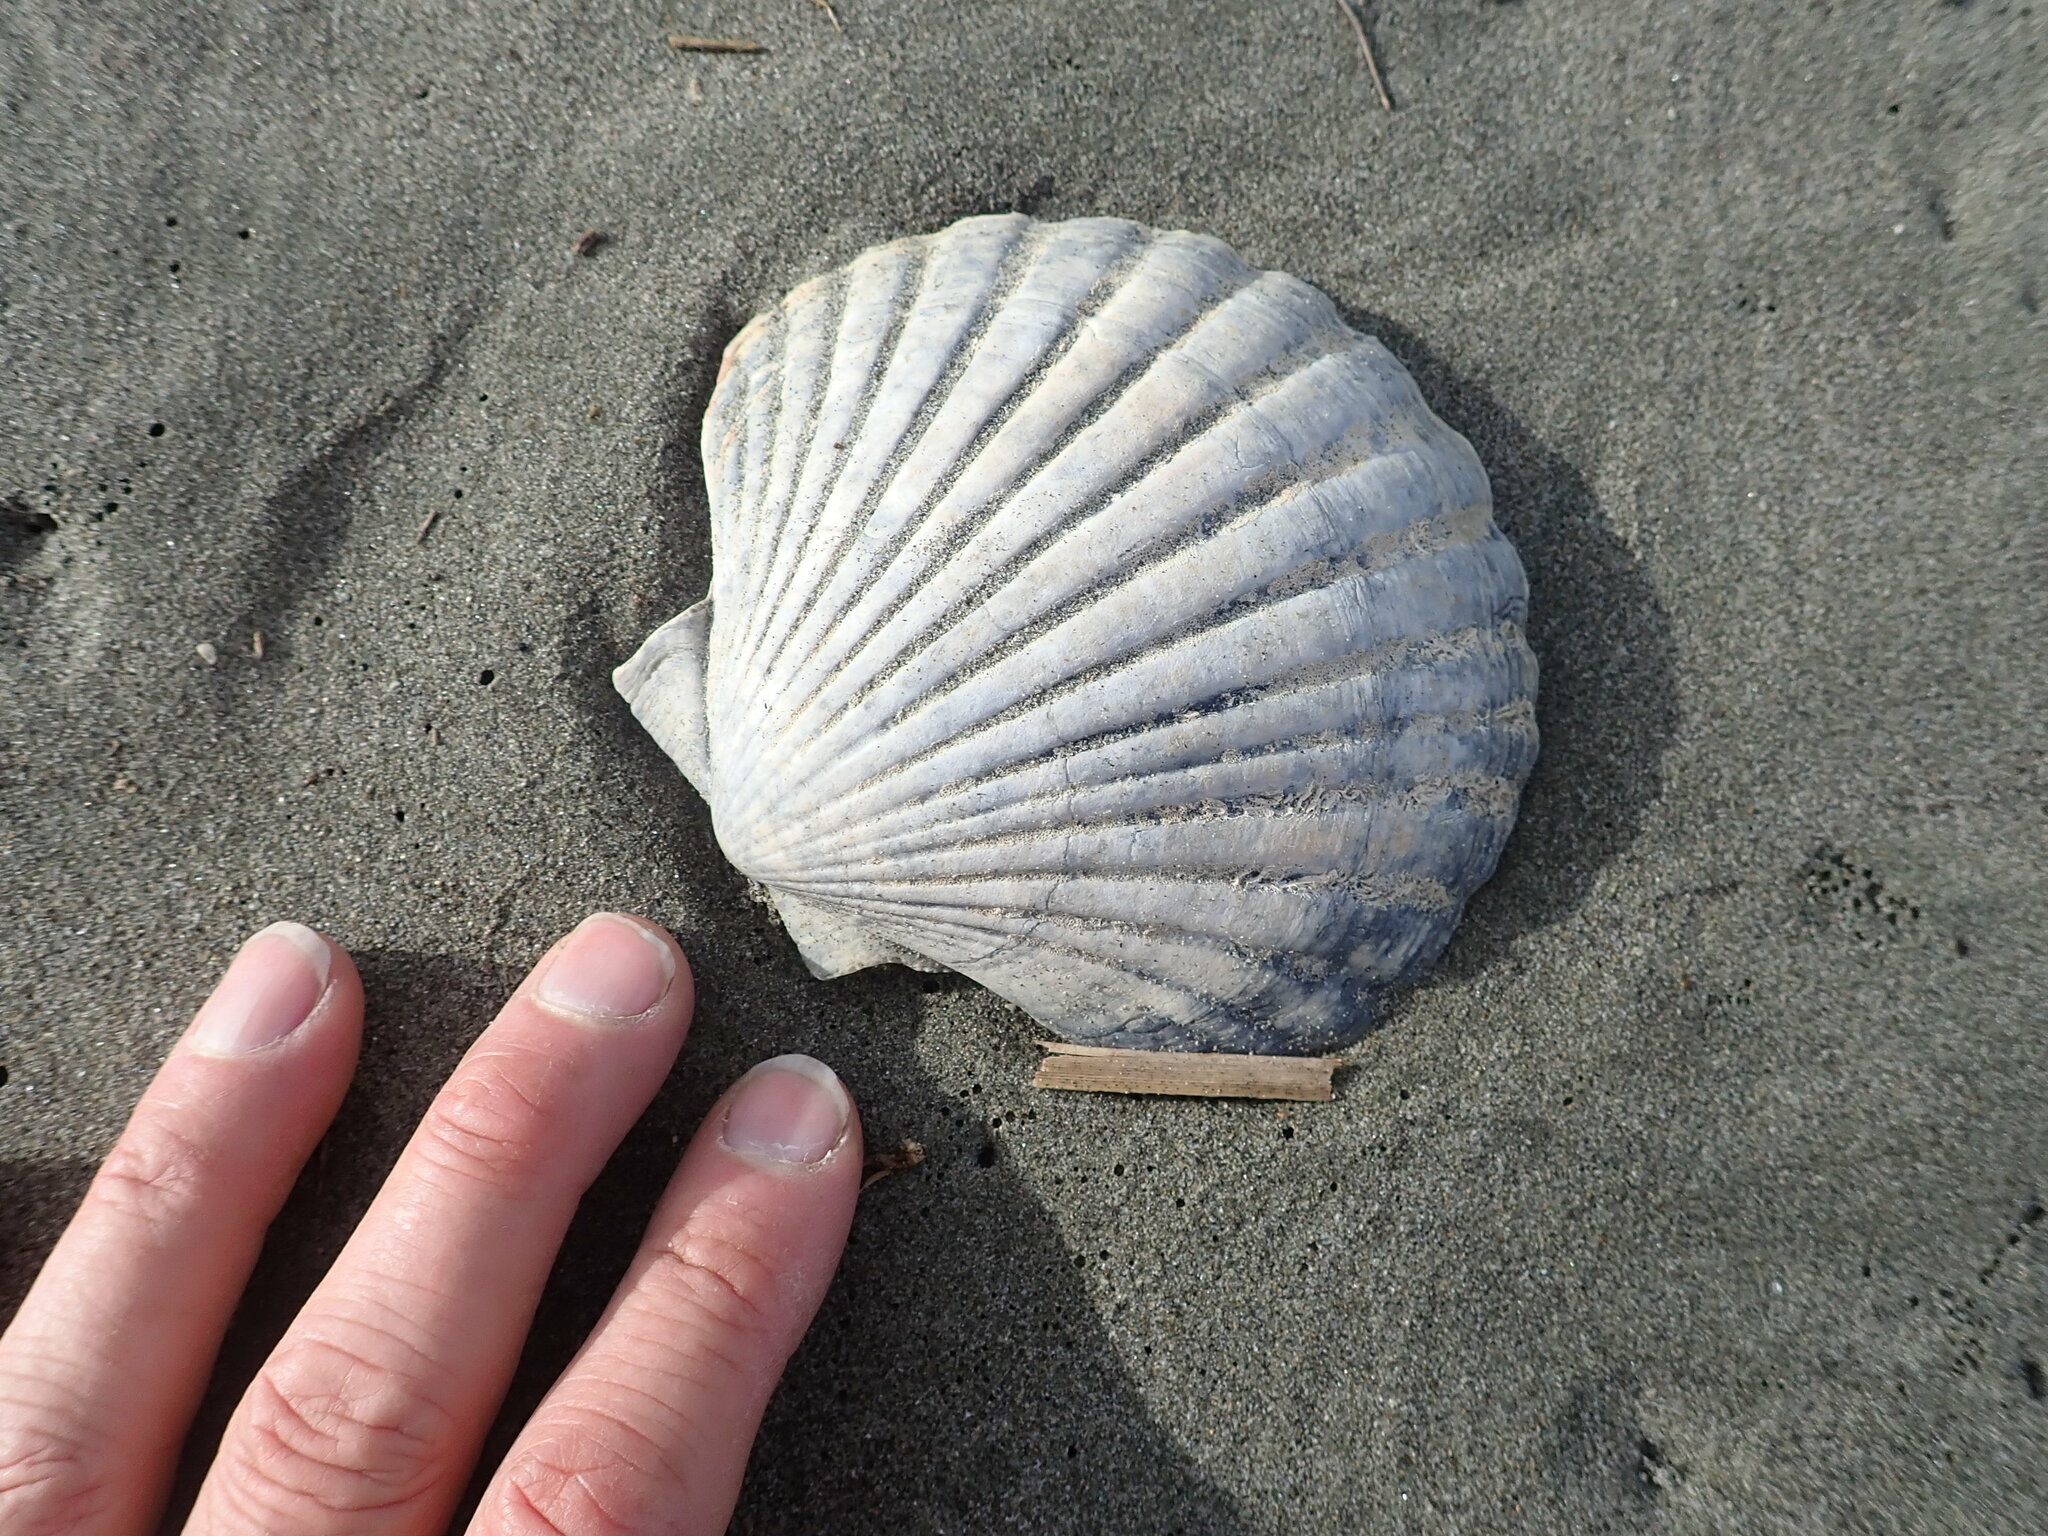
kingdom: Animalia
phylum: Mollusca
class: Bivalvia
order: Pectinida
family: Pectinidae
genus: Pecten
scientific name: Pecten novaezelandiae
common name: New zealand scallop
